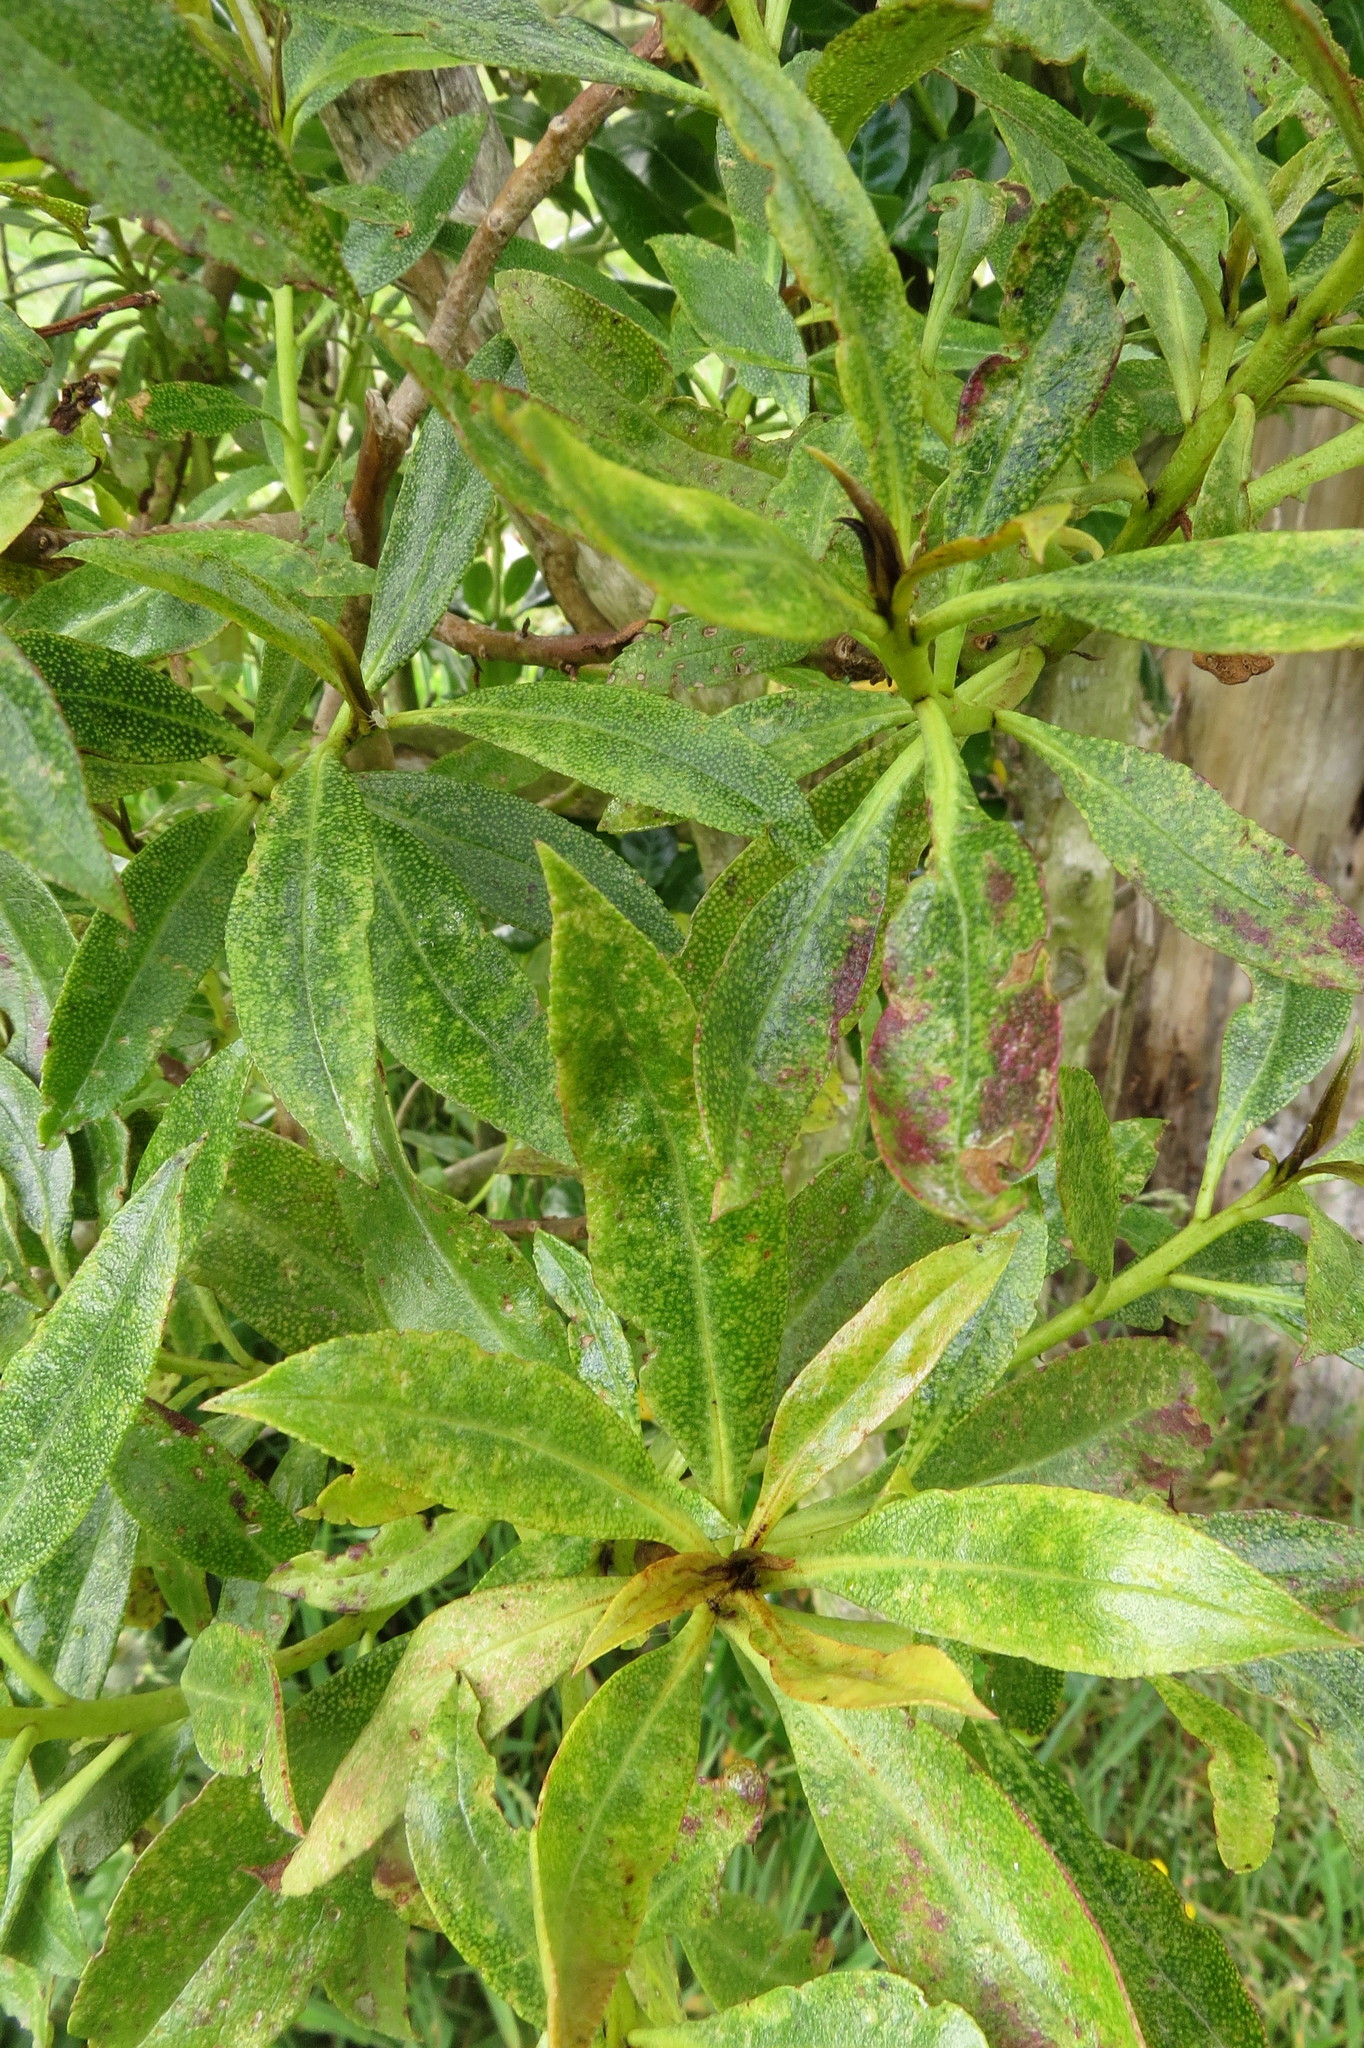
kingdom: Plantae
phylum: Tracheophyta
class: Magnoliopsida
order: Lamiales
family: Scrophulariaceae
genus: Myoporum
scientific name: Myoporum laetum
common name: Ngaio tree
